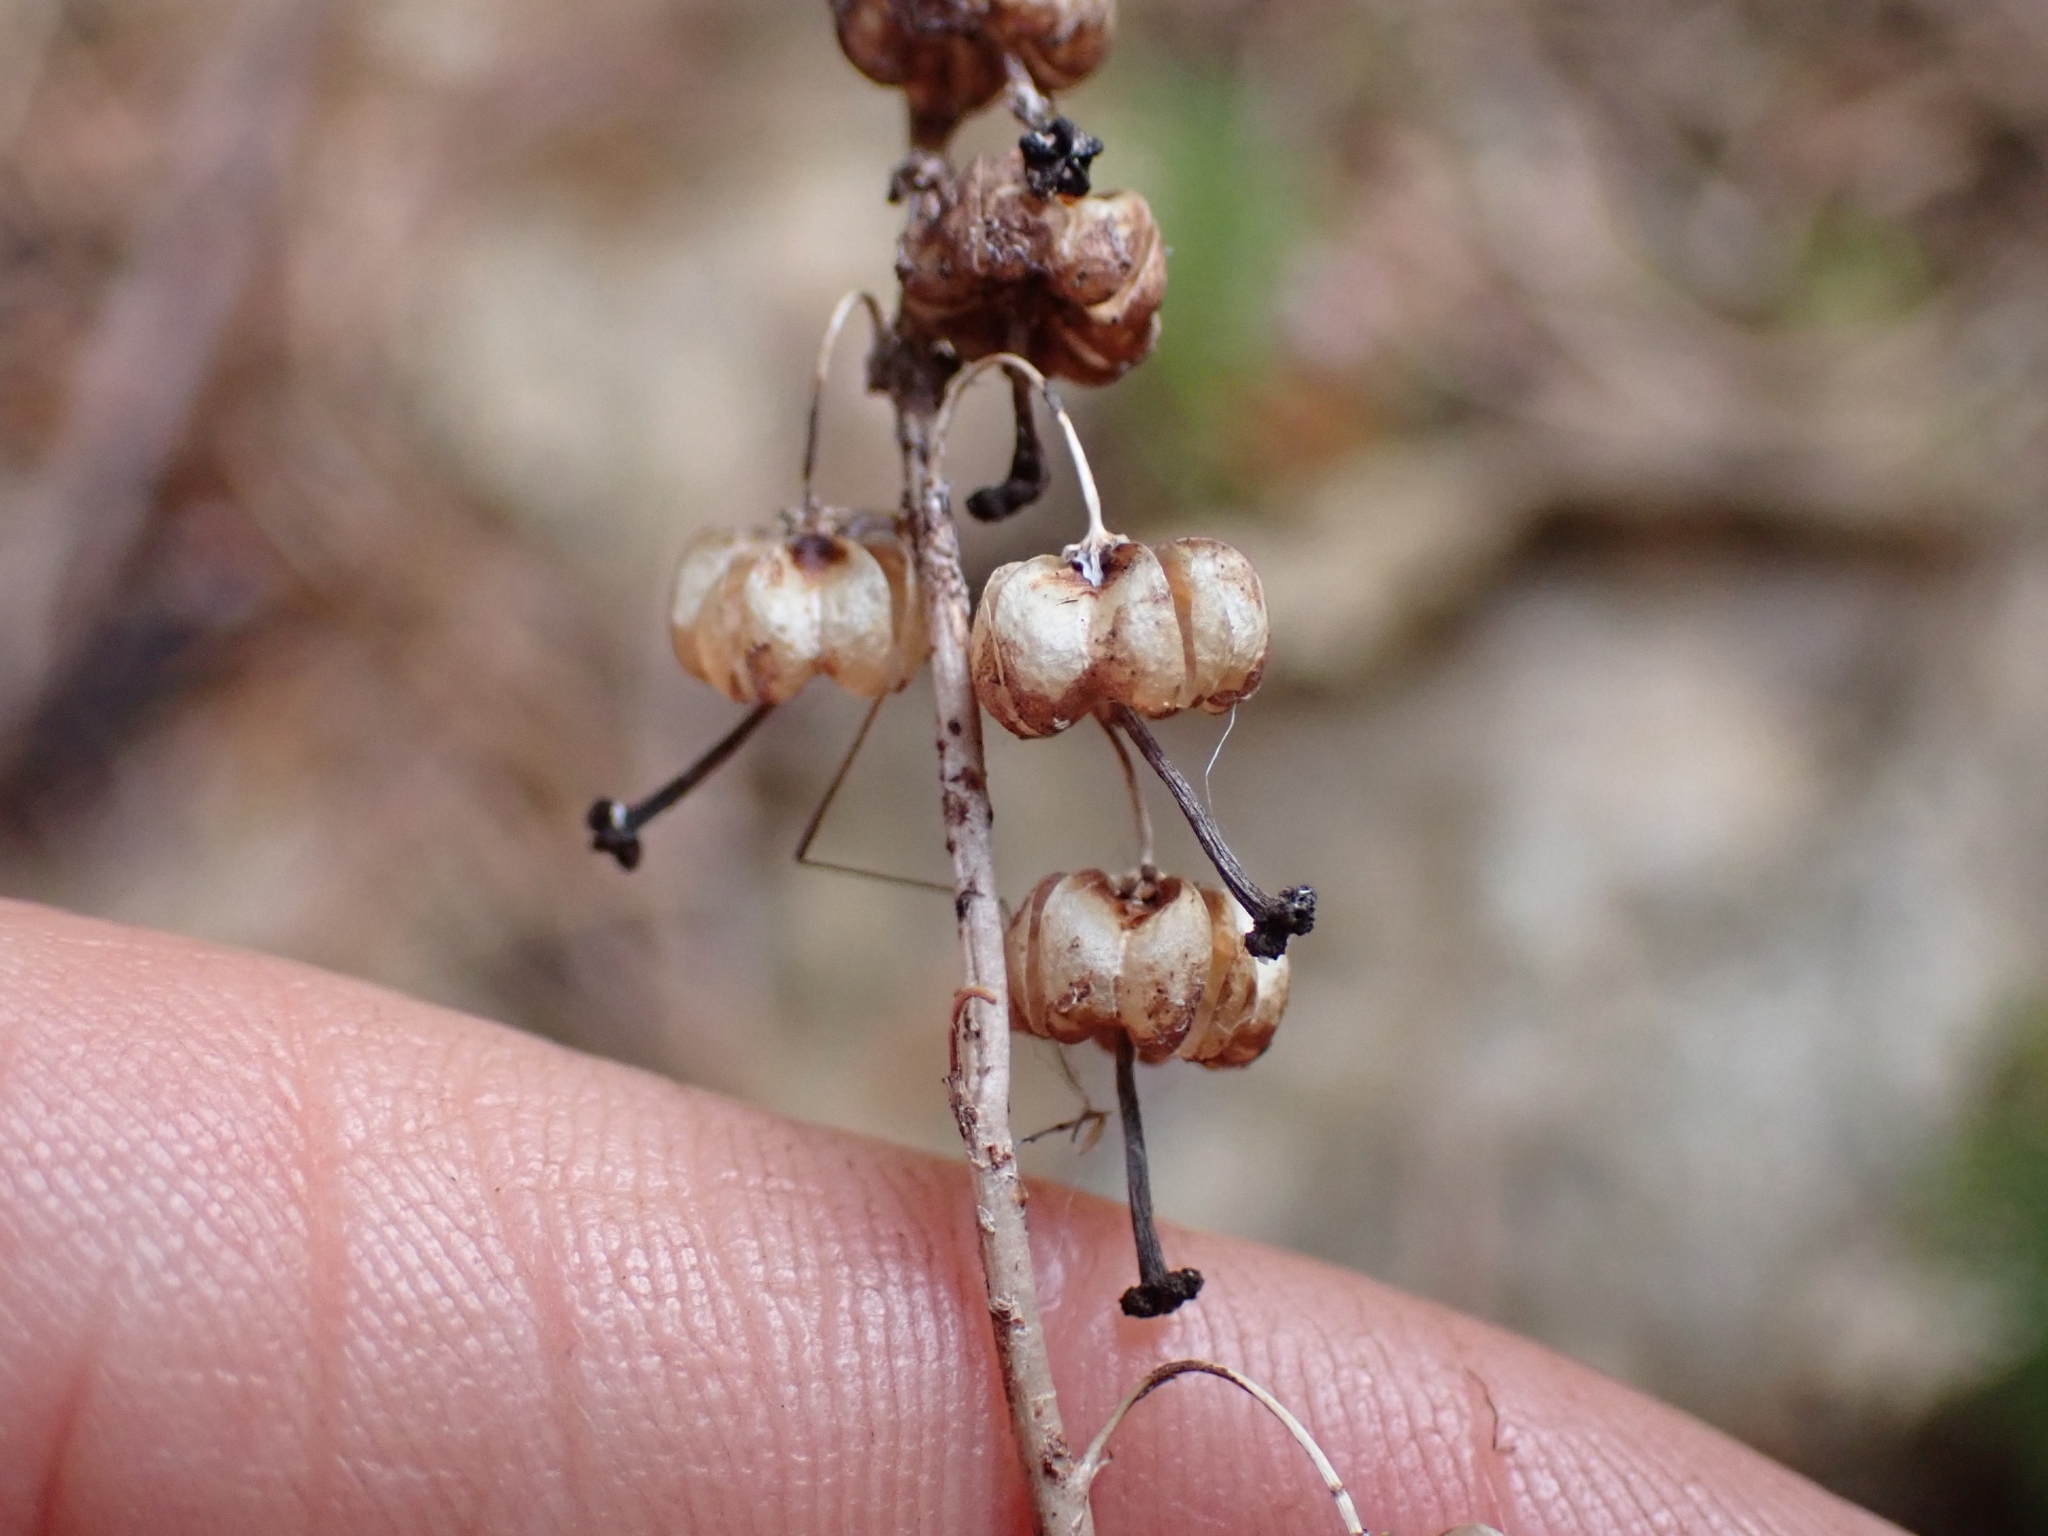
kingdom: Plantae
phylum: Tracheophyta
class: Magnoliopsida
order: Ericales
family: Ericaceae
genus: Orthilia
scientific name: Orthilia secunda
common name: One-sided orthilia
